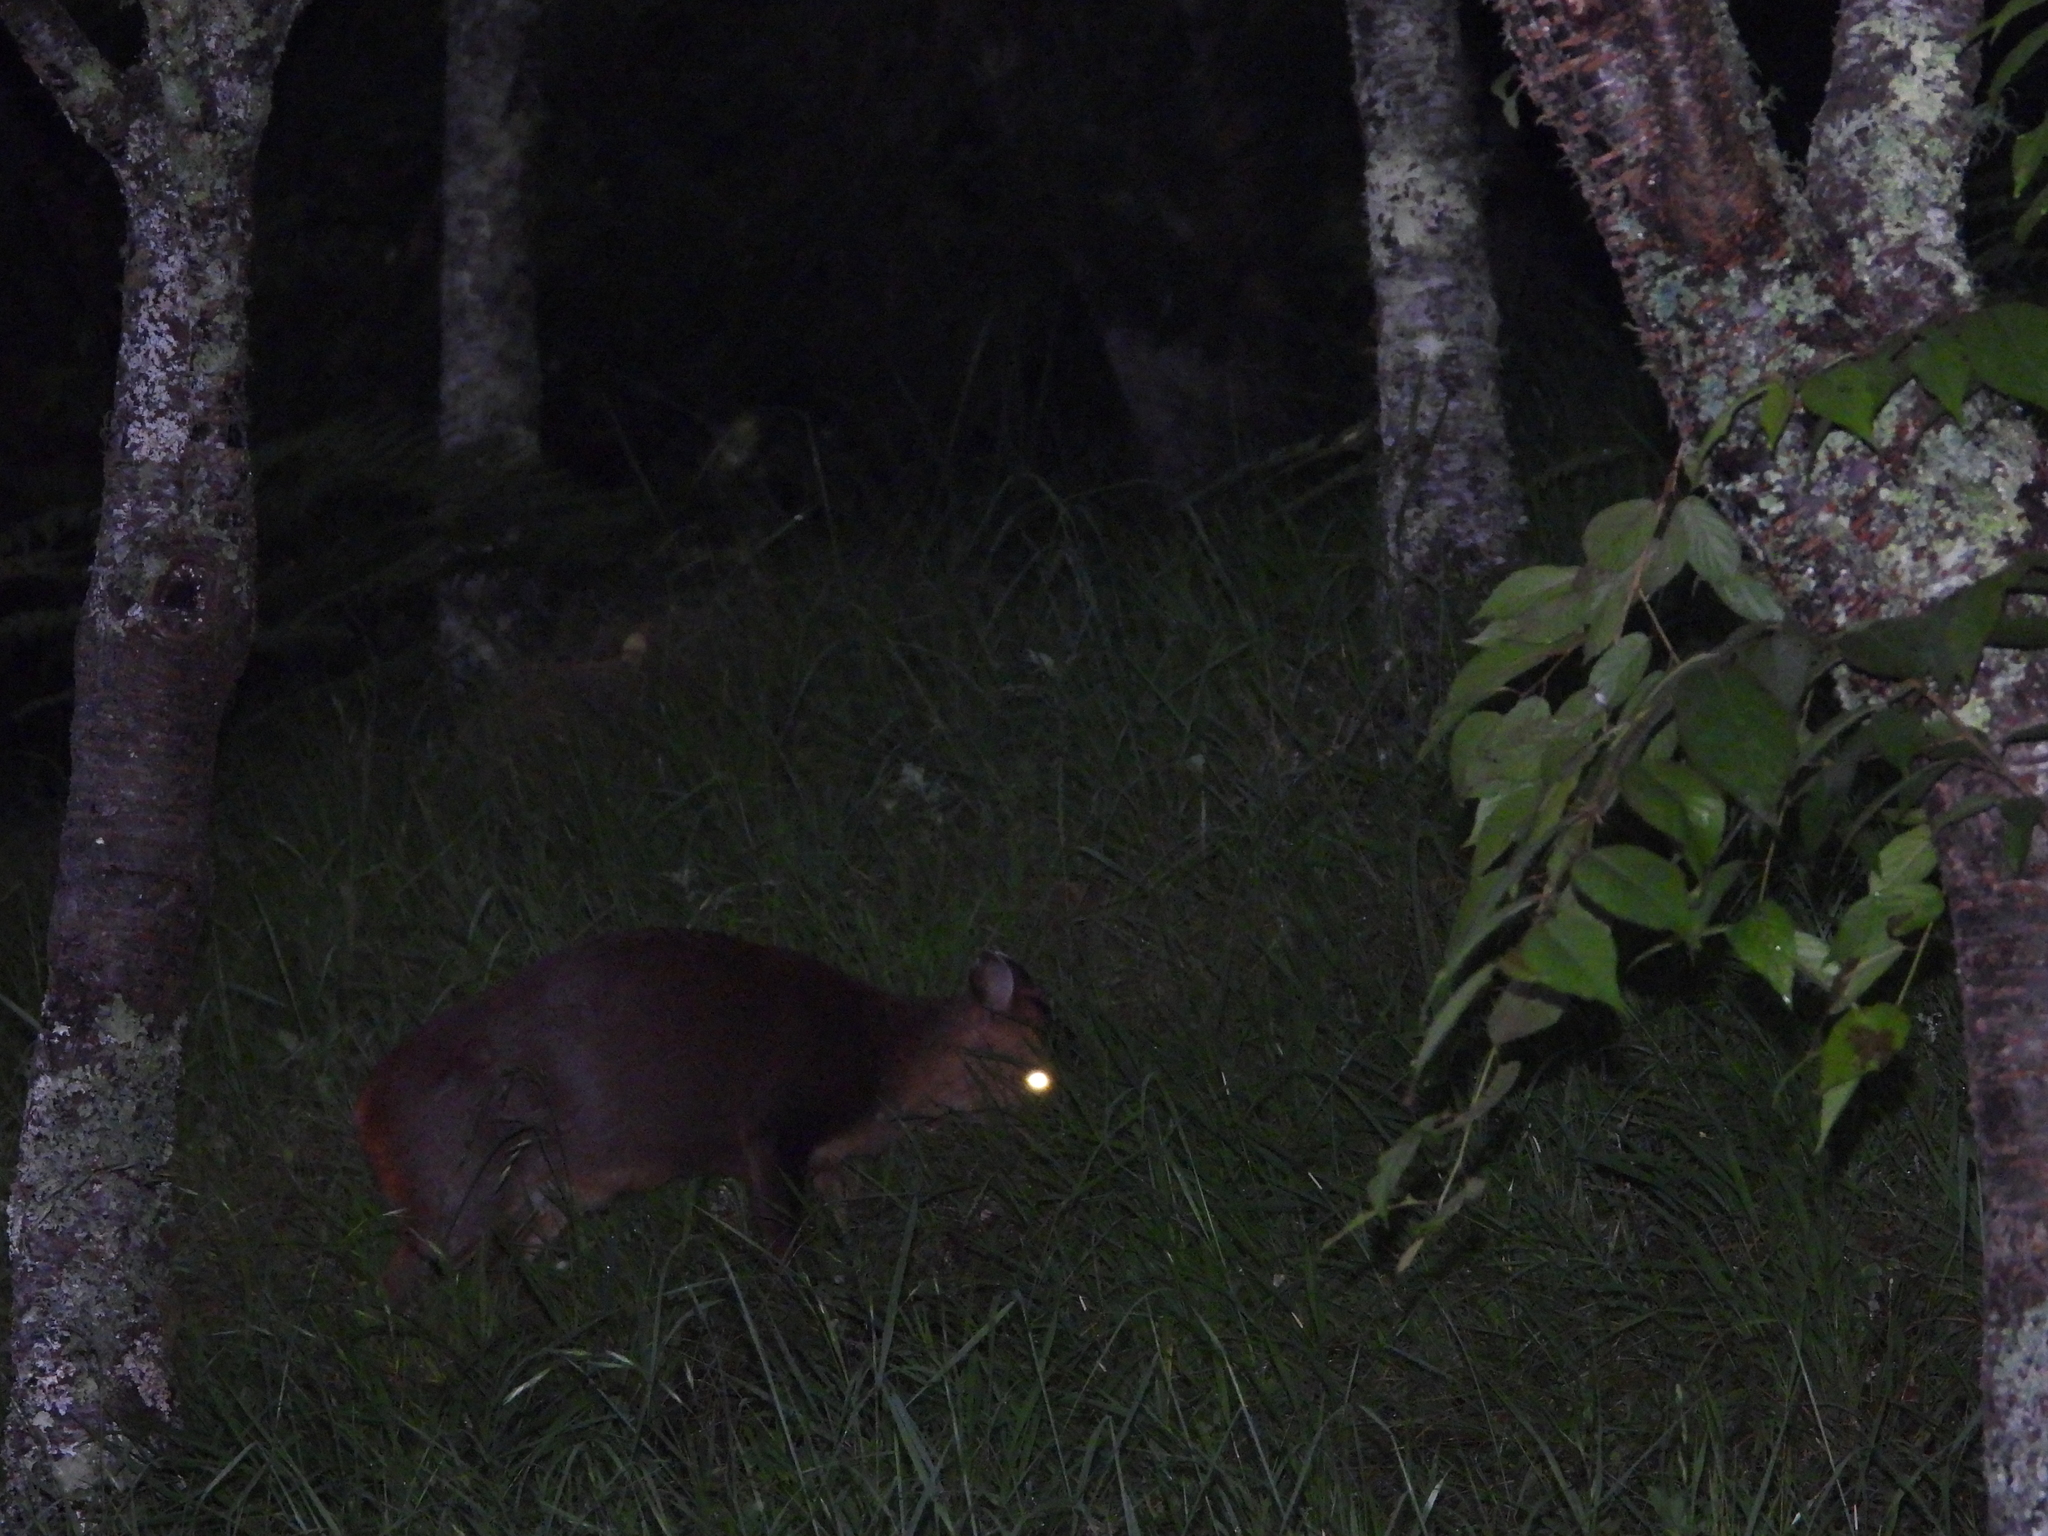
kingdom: Animalia
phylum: Chordata
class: Mammalia
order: Artiodactyla
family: Cervidae
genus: Muntiacus
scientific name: Muntiacus reevesi
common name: Reeves' muntjac
